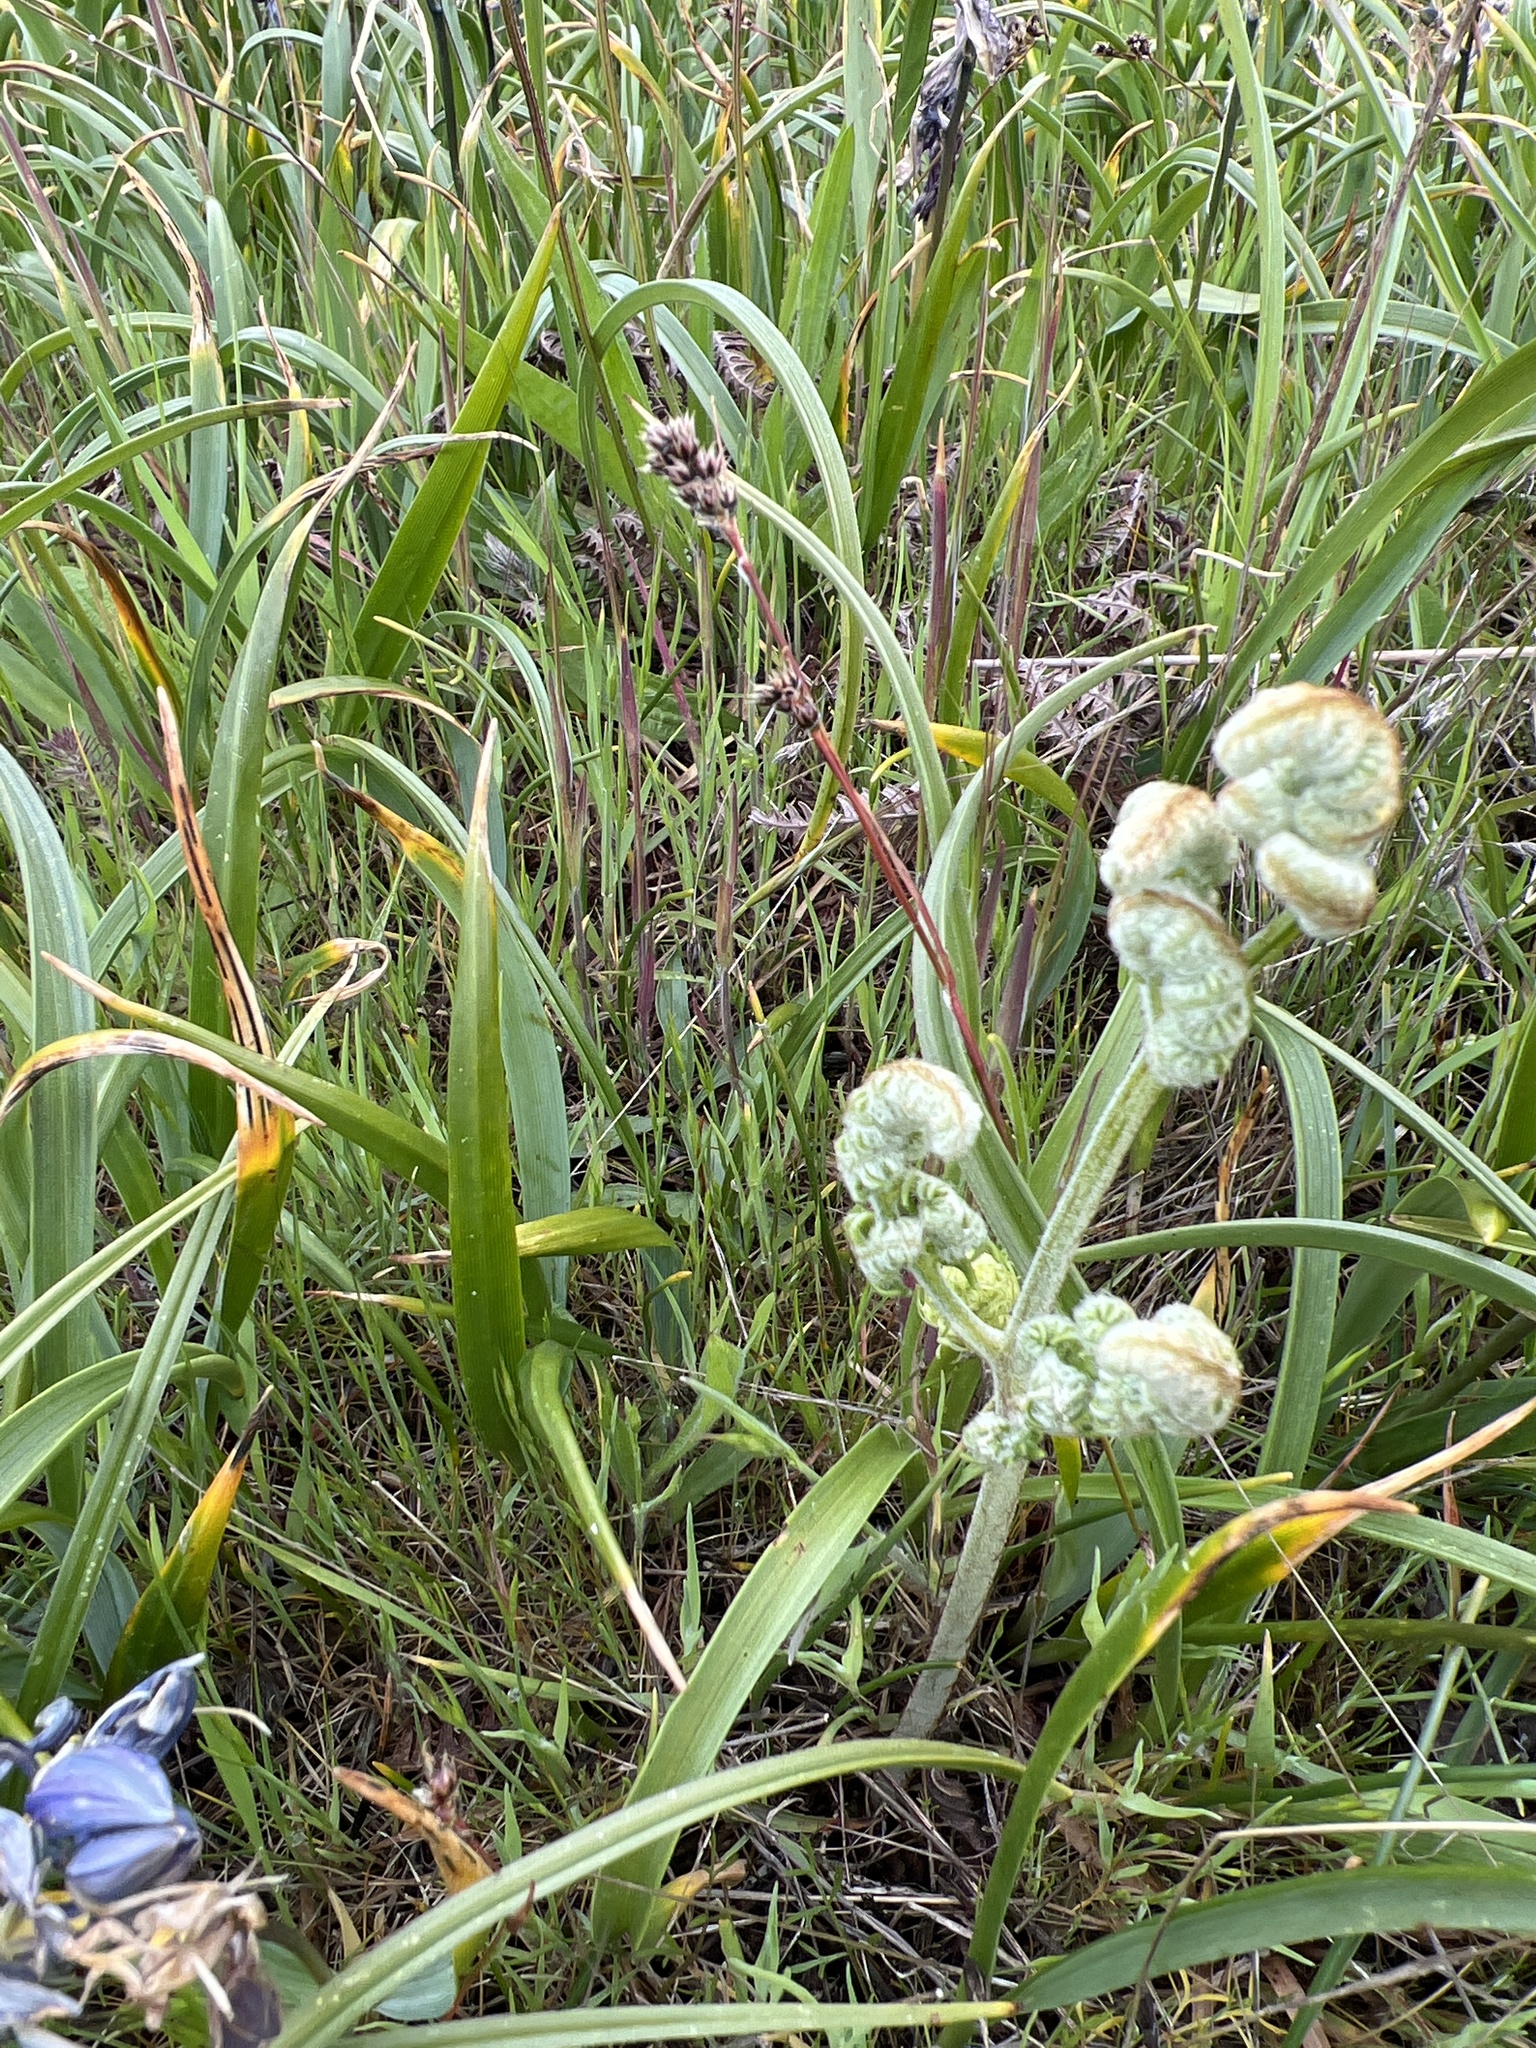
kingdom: Plantae
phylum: Tracheophyta
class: Polypodiopsida
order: Polypodiales
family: Dennstaedtiaceae
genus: Pteridium
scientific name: Pteridium aquilinum
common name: Bracken
